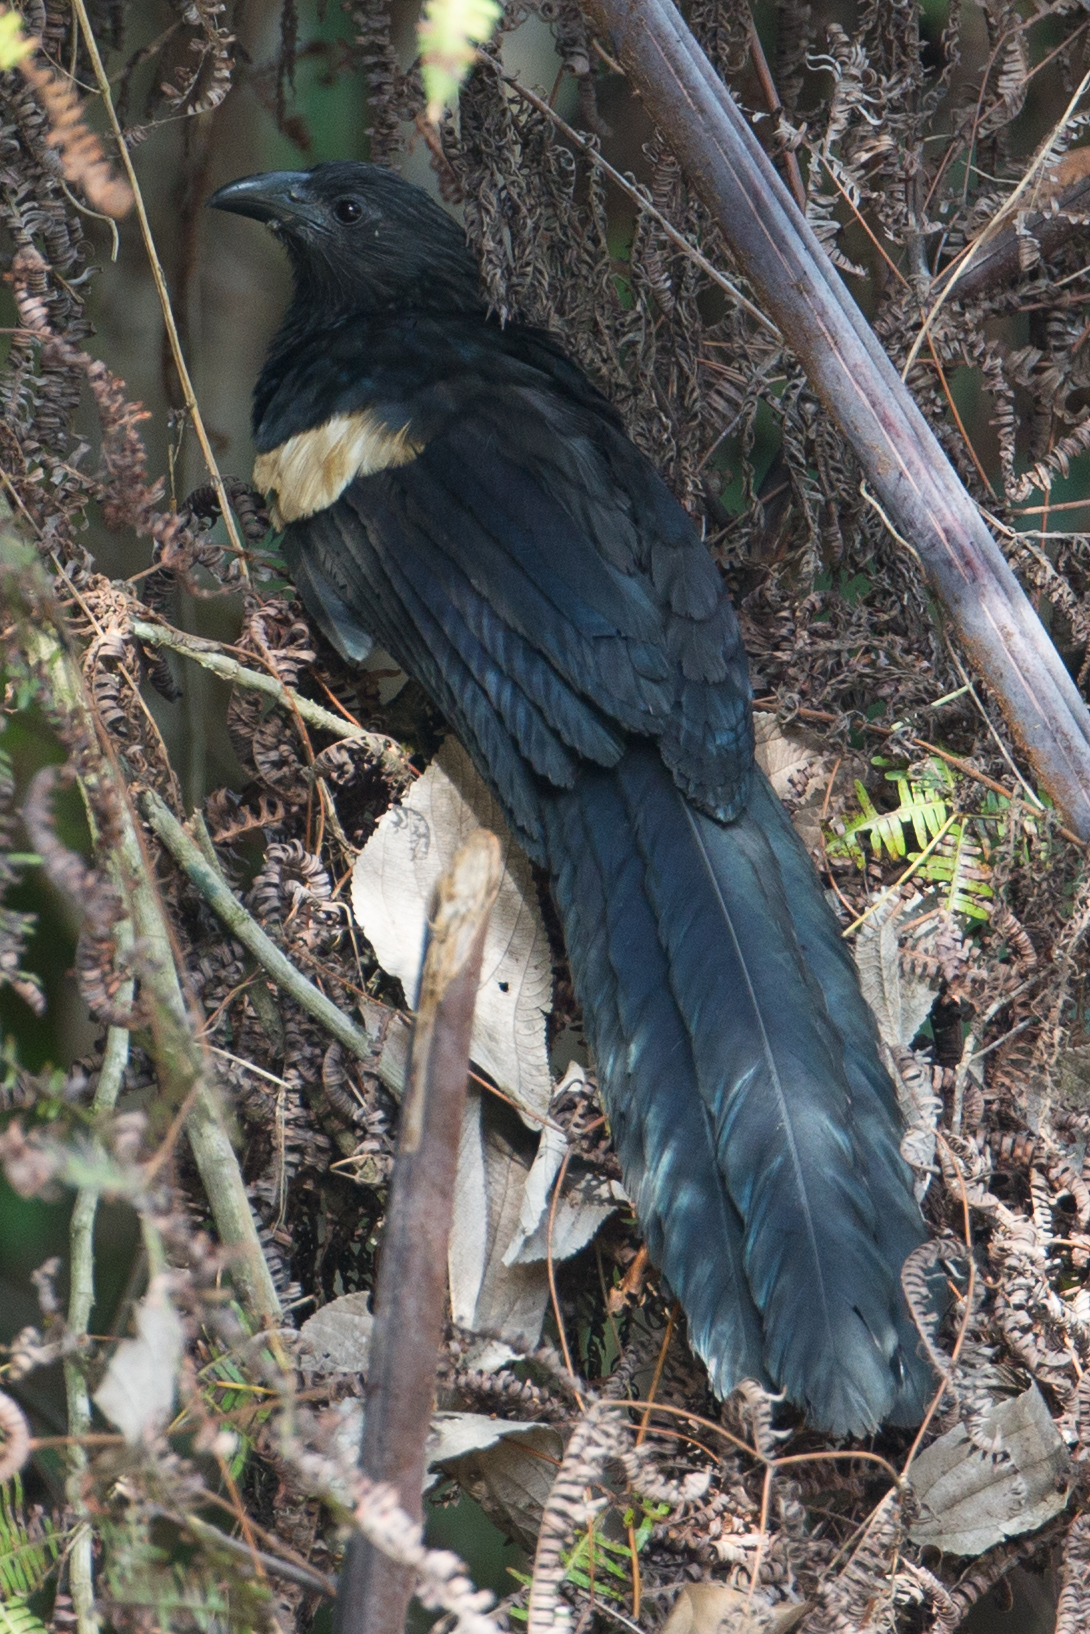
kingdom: Animalia
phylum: Chordata
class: Aves
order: Cuculiformes
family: Cuculidae
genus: Centropus
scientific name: Centropus goliath
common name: Goliath coucal
